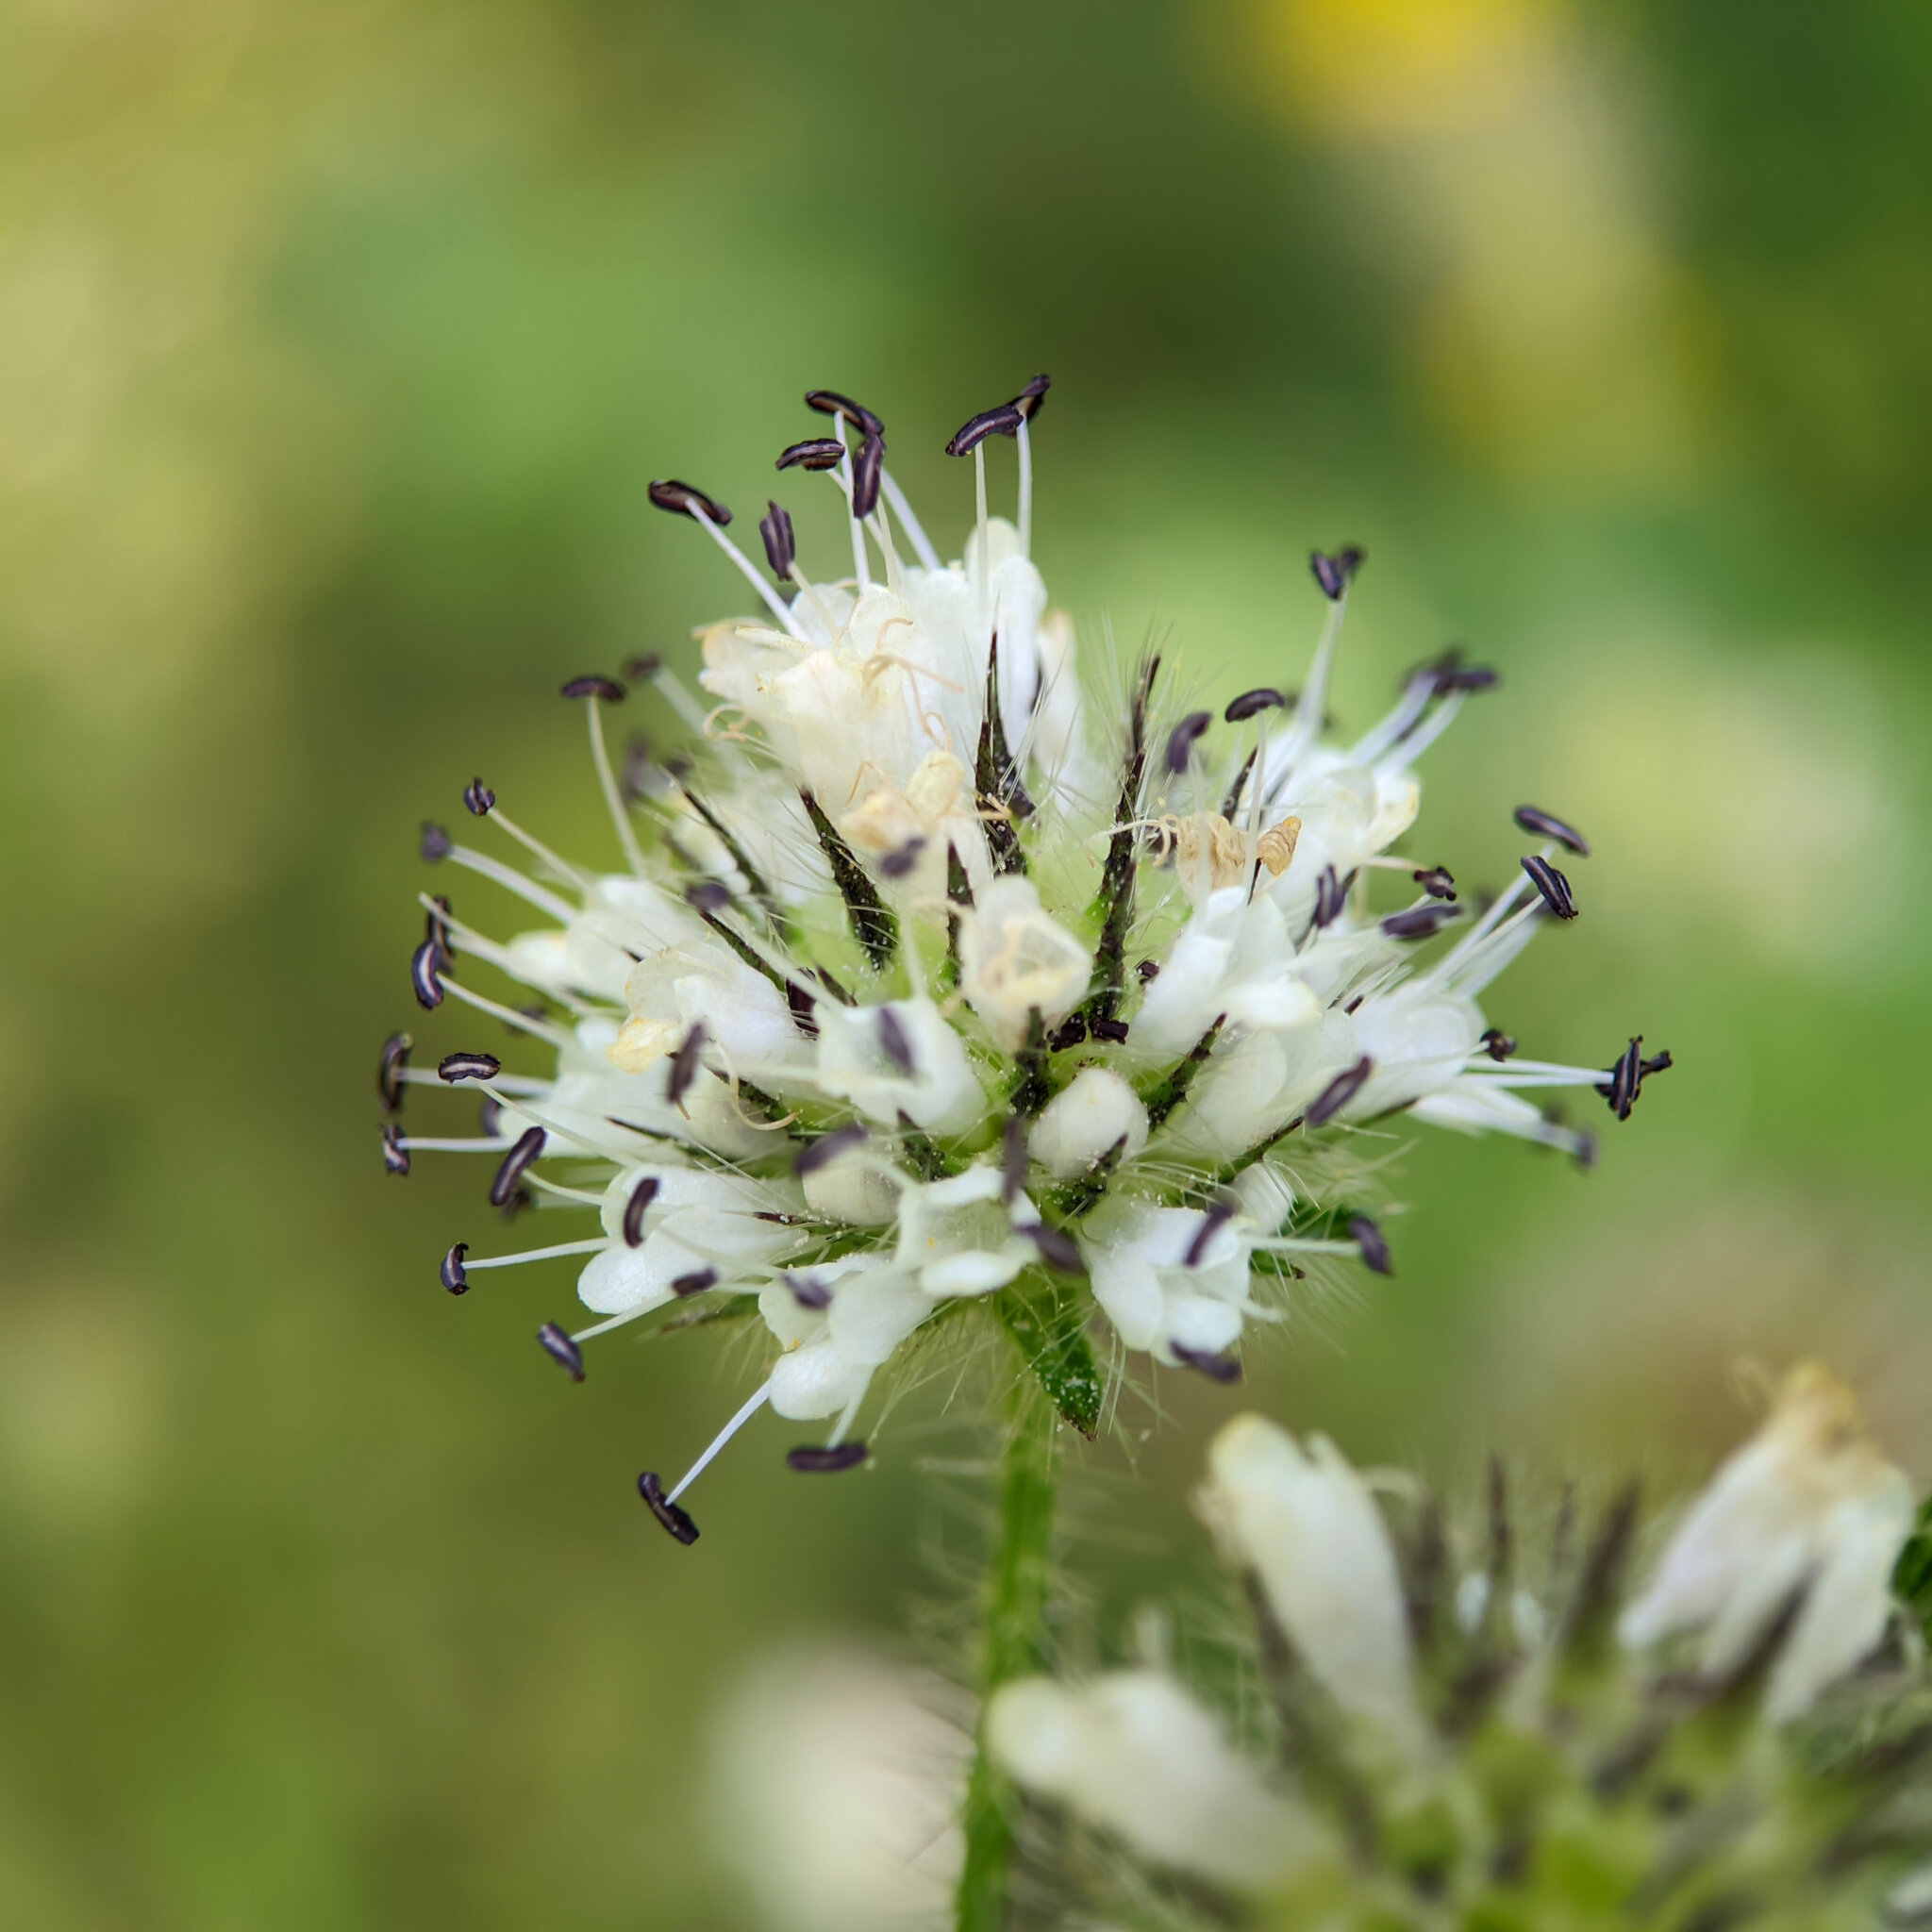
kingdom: Plantae
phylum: Tracheophyta
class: Magnoliopsida
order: Dipsacales
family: Caprifoliaceae
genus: Dipsacus
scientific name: Dipsacus pilosus
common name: Small teasel
